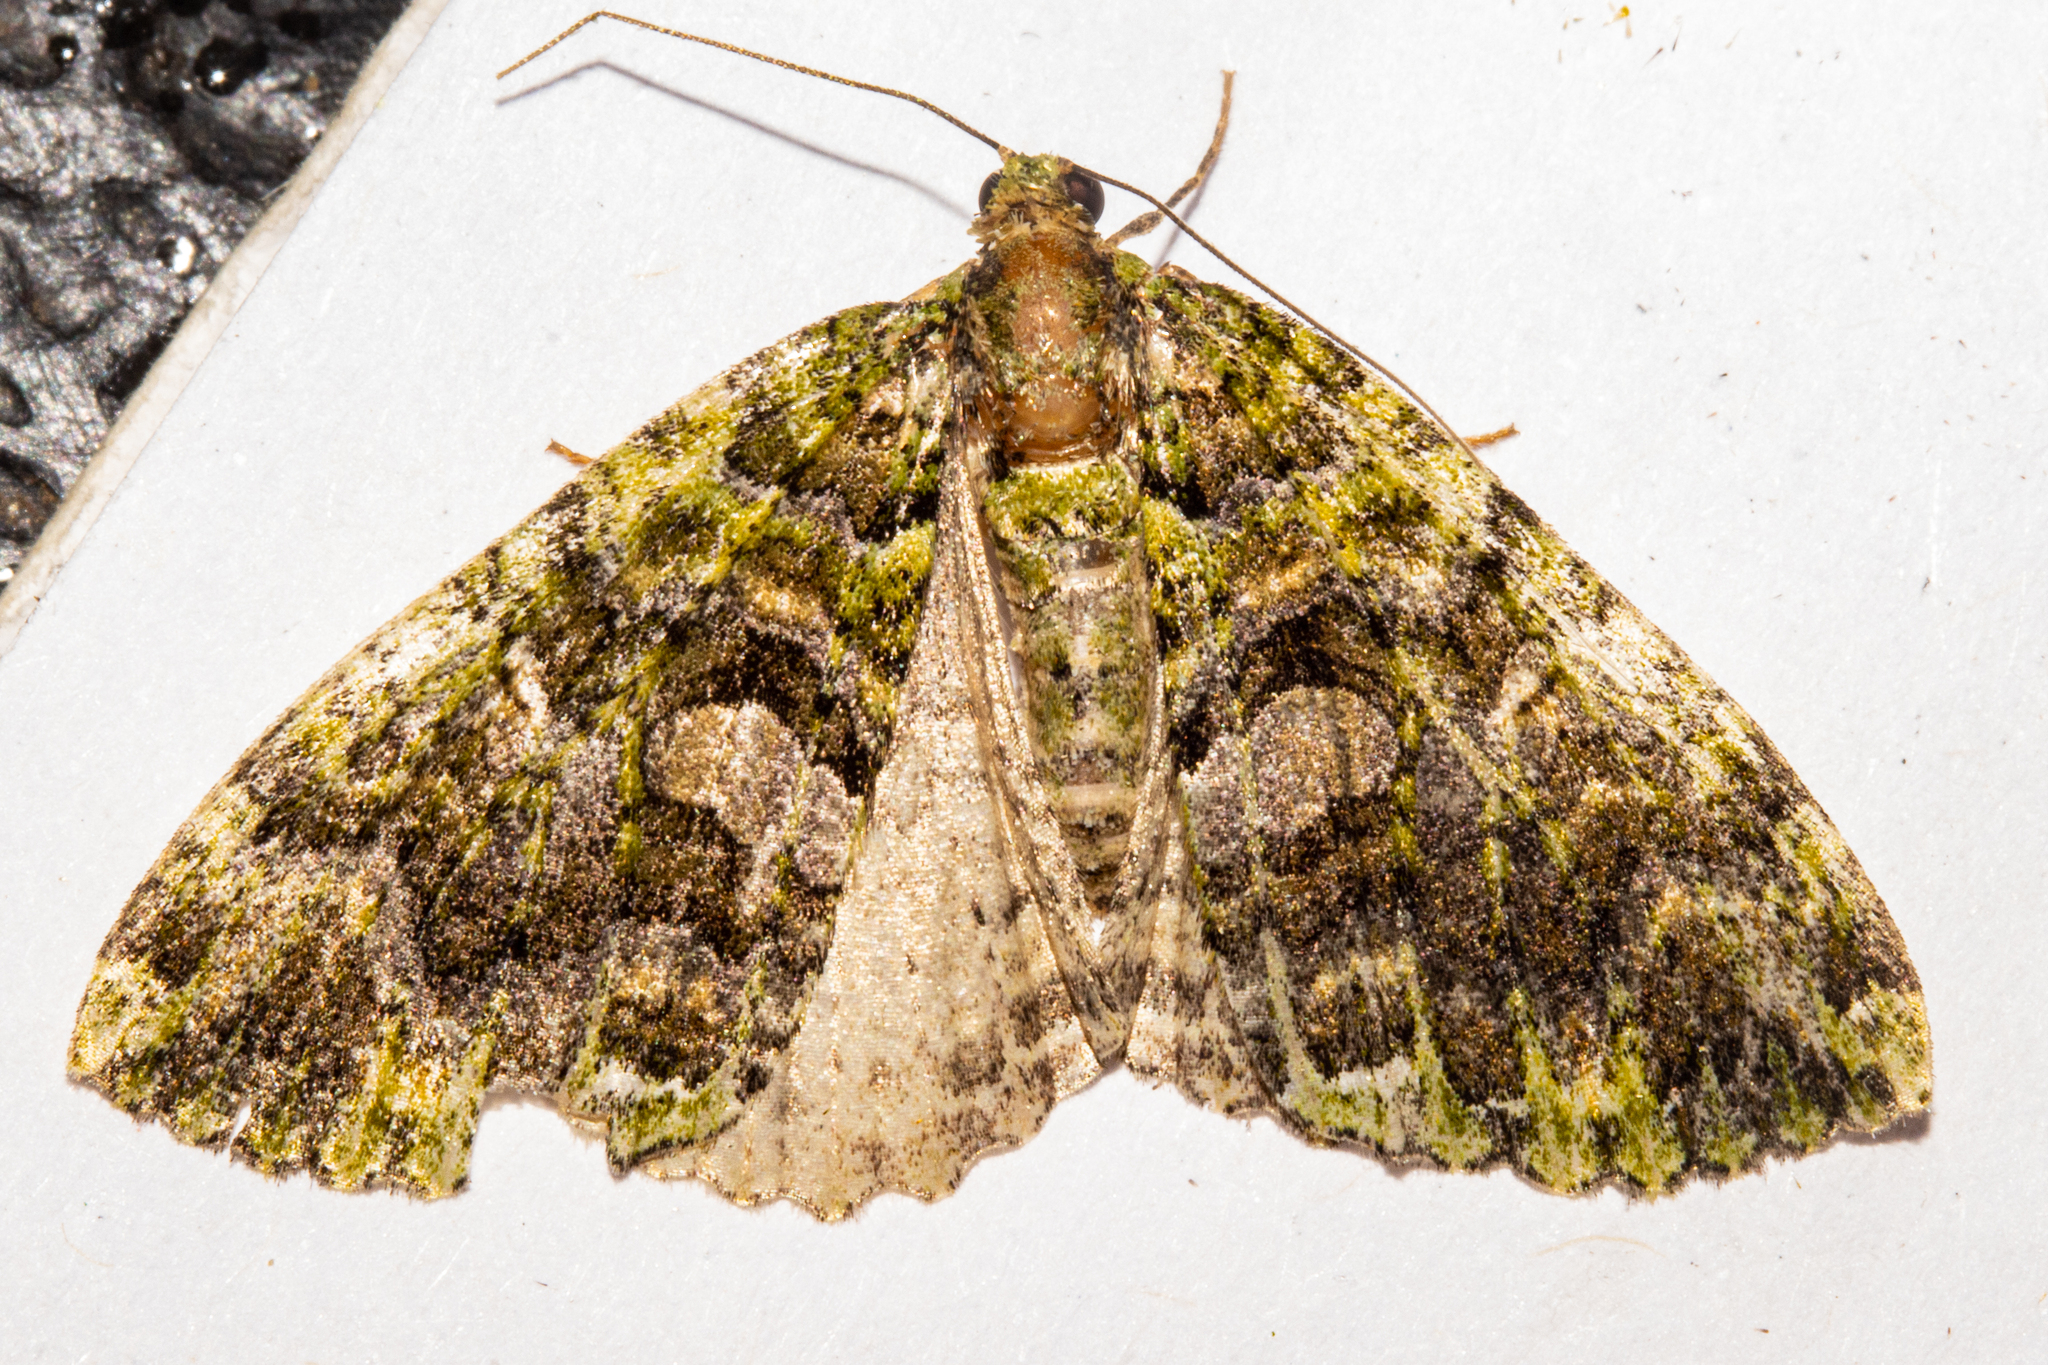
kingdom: Animalia
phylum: Arthropoda
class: Insecta
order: Lepidoptera
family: Geometridae
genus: Austrocidaria
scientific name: Austrocidaria similata
